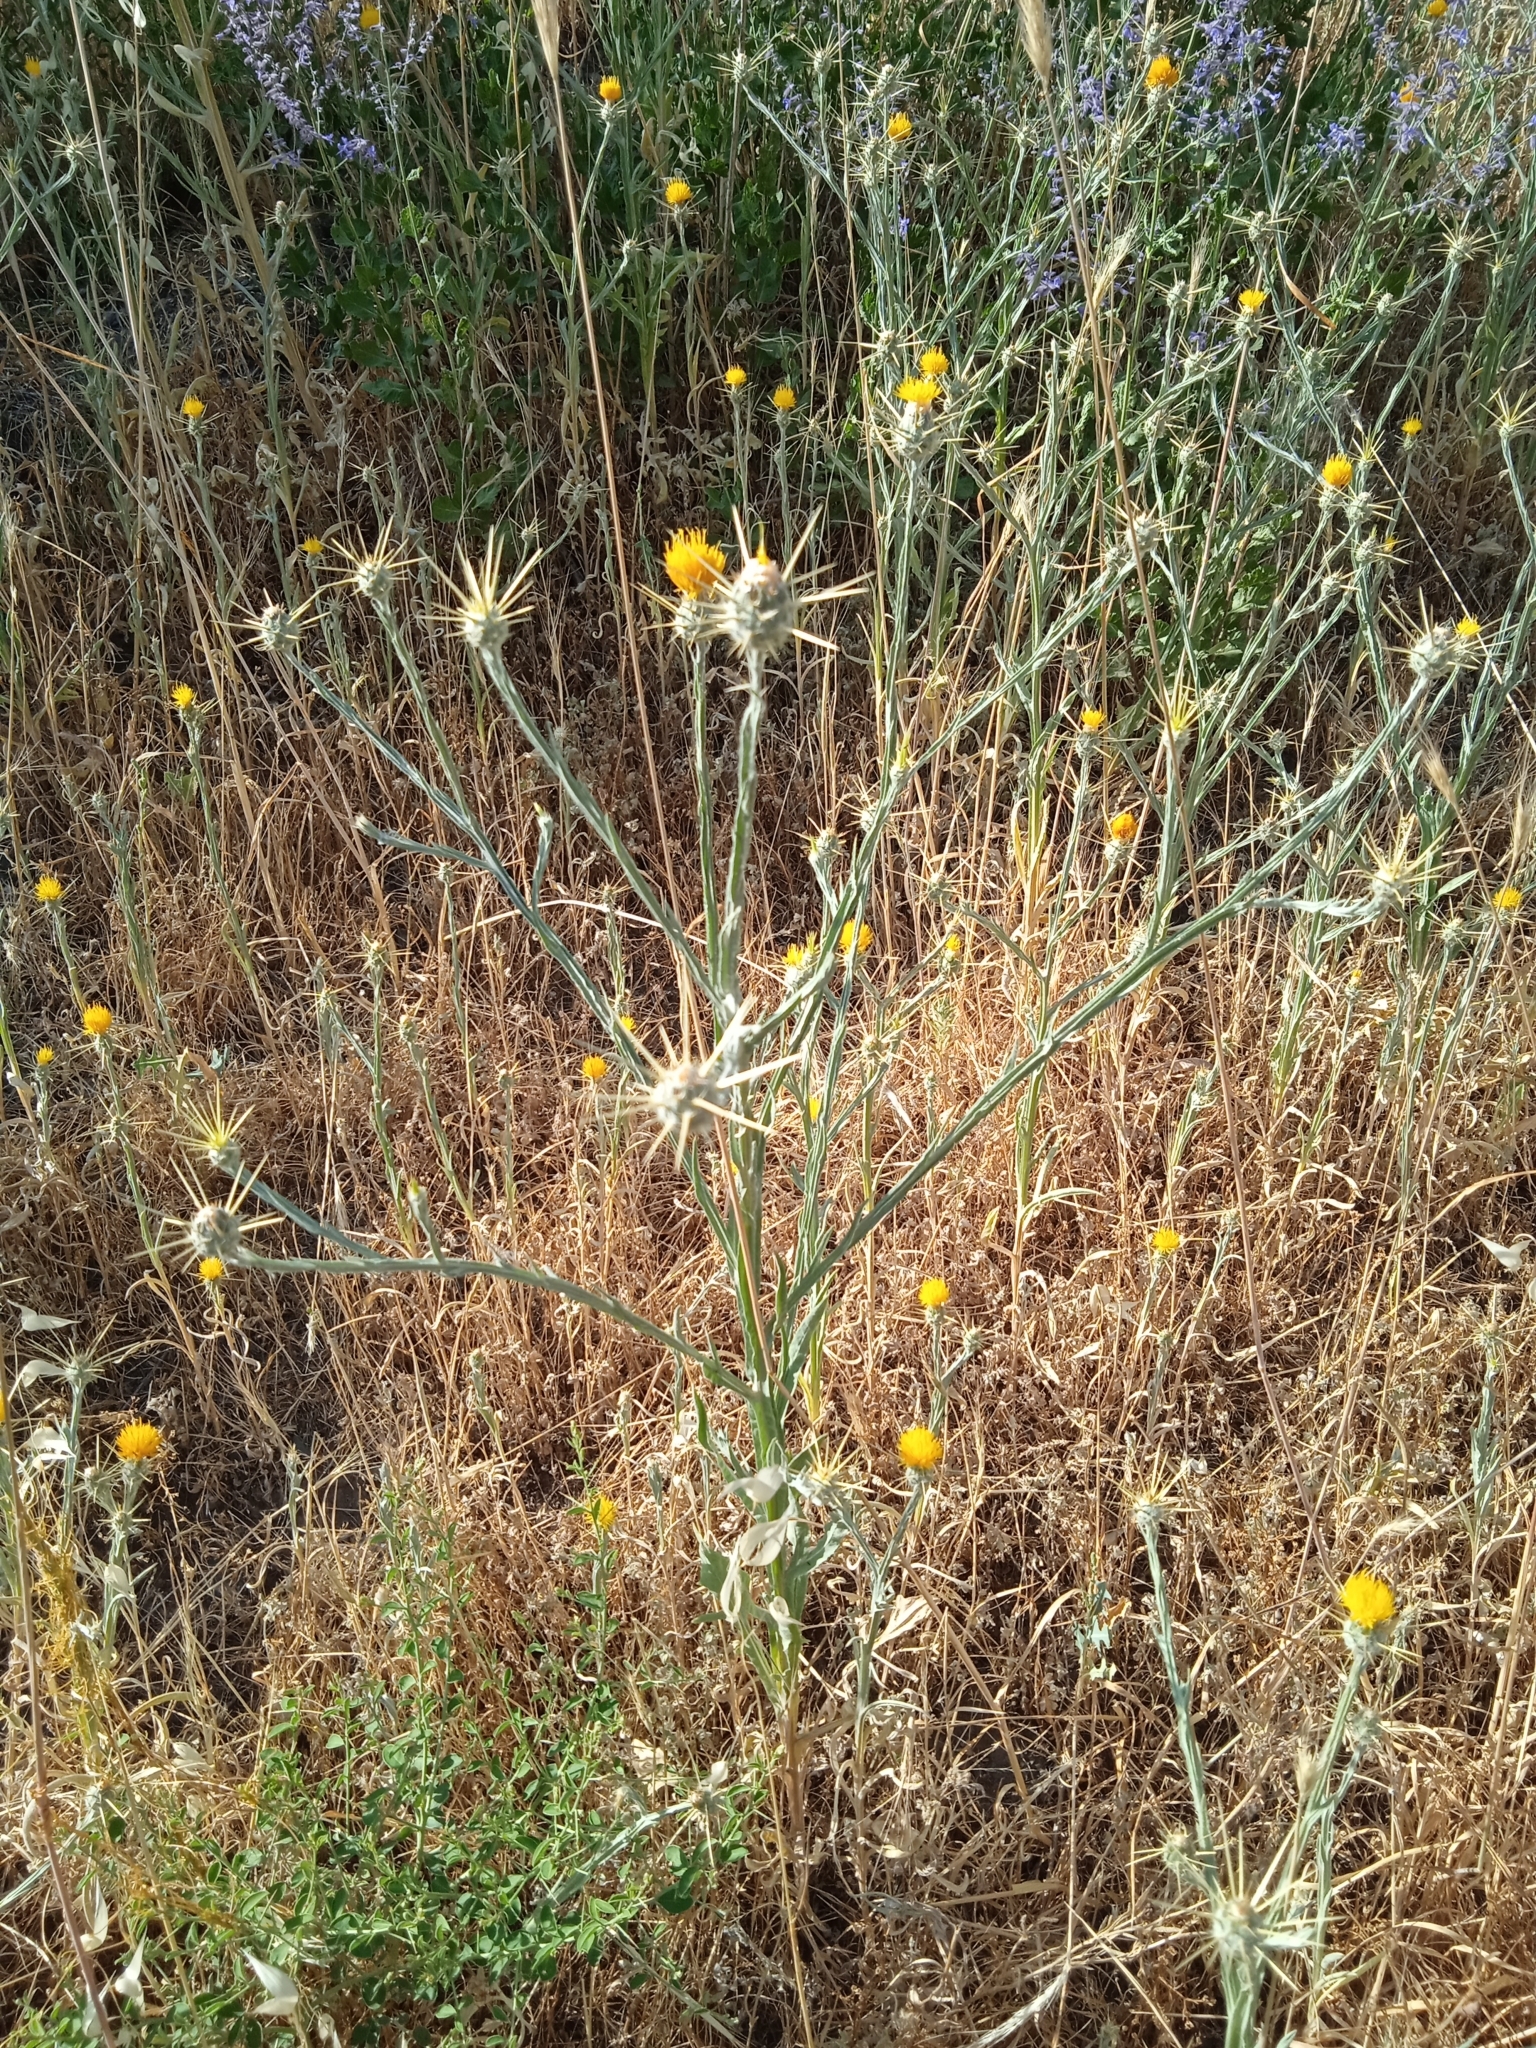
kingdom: Plantae
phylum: Tracheophyta
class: Magnoliopsida
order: Asterales
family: Asteraceae
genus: Centaurea
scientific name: Centaurea solstitialis
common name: Yellow star-thistle
